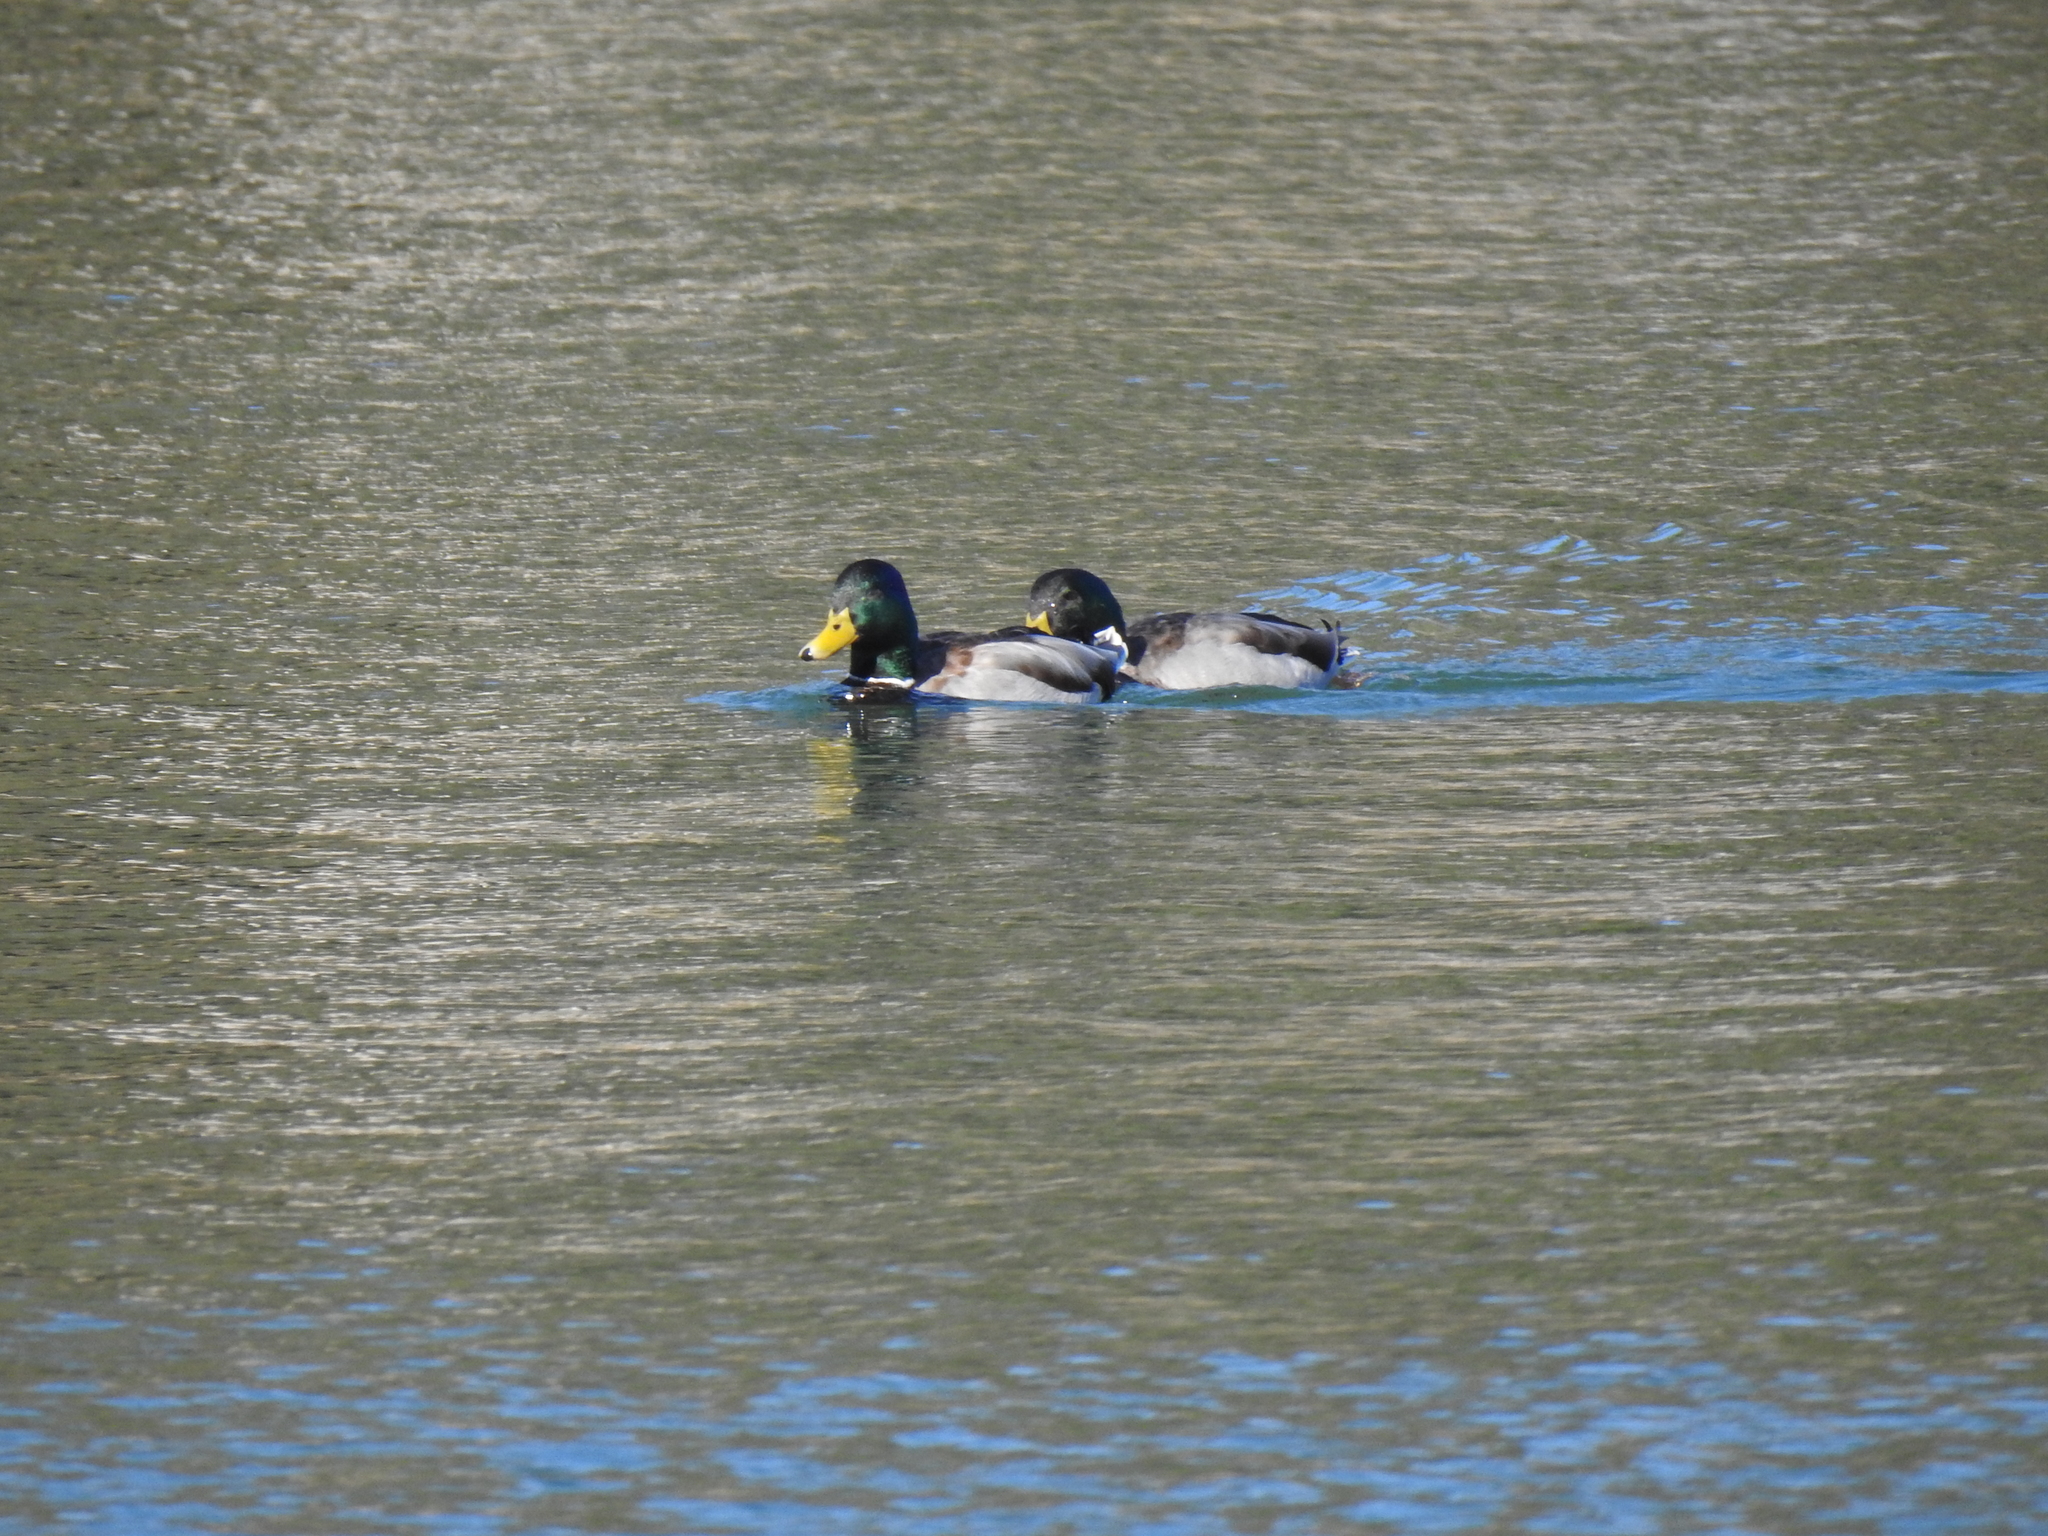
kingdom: Animalia
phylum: Chordata
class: Aves
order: Anseriformes
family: Anatidae
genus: Anas
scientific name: Anas platyrhynchos
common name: Mallard
